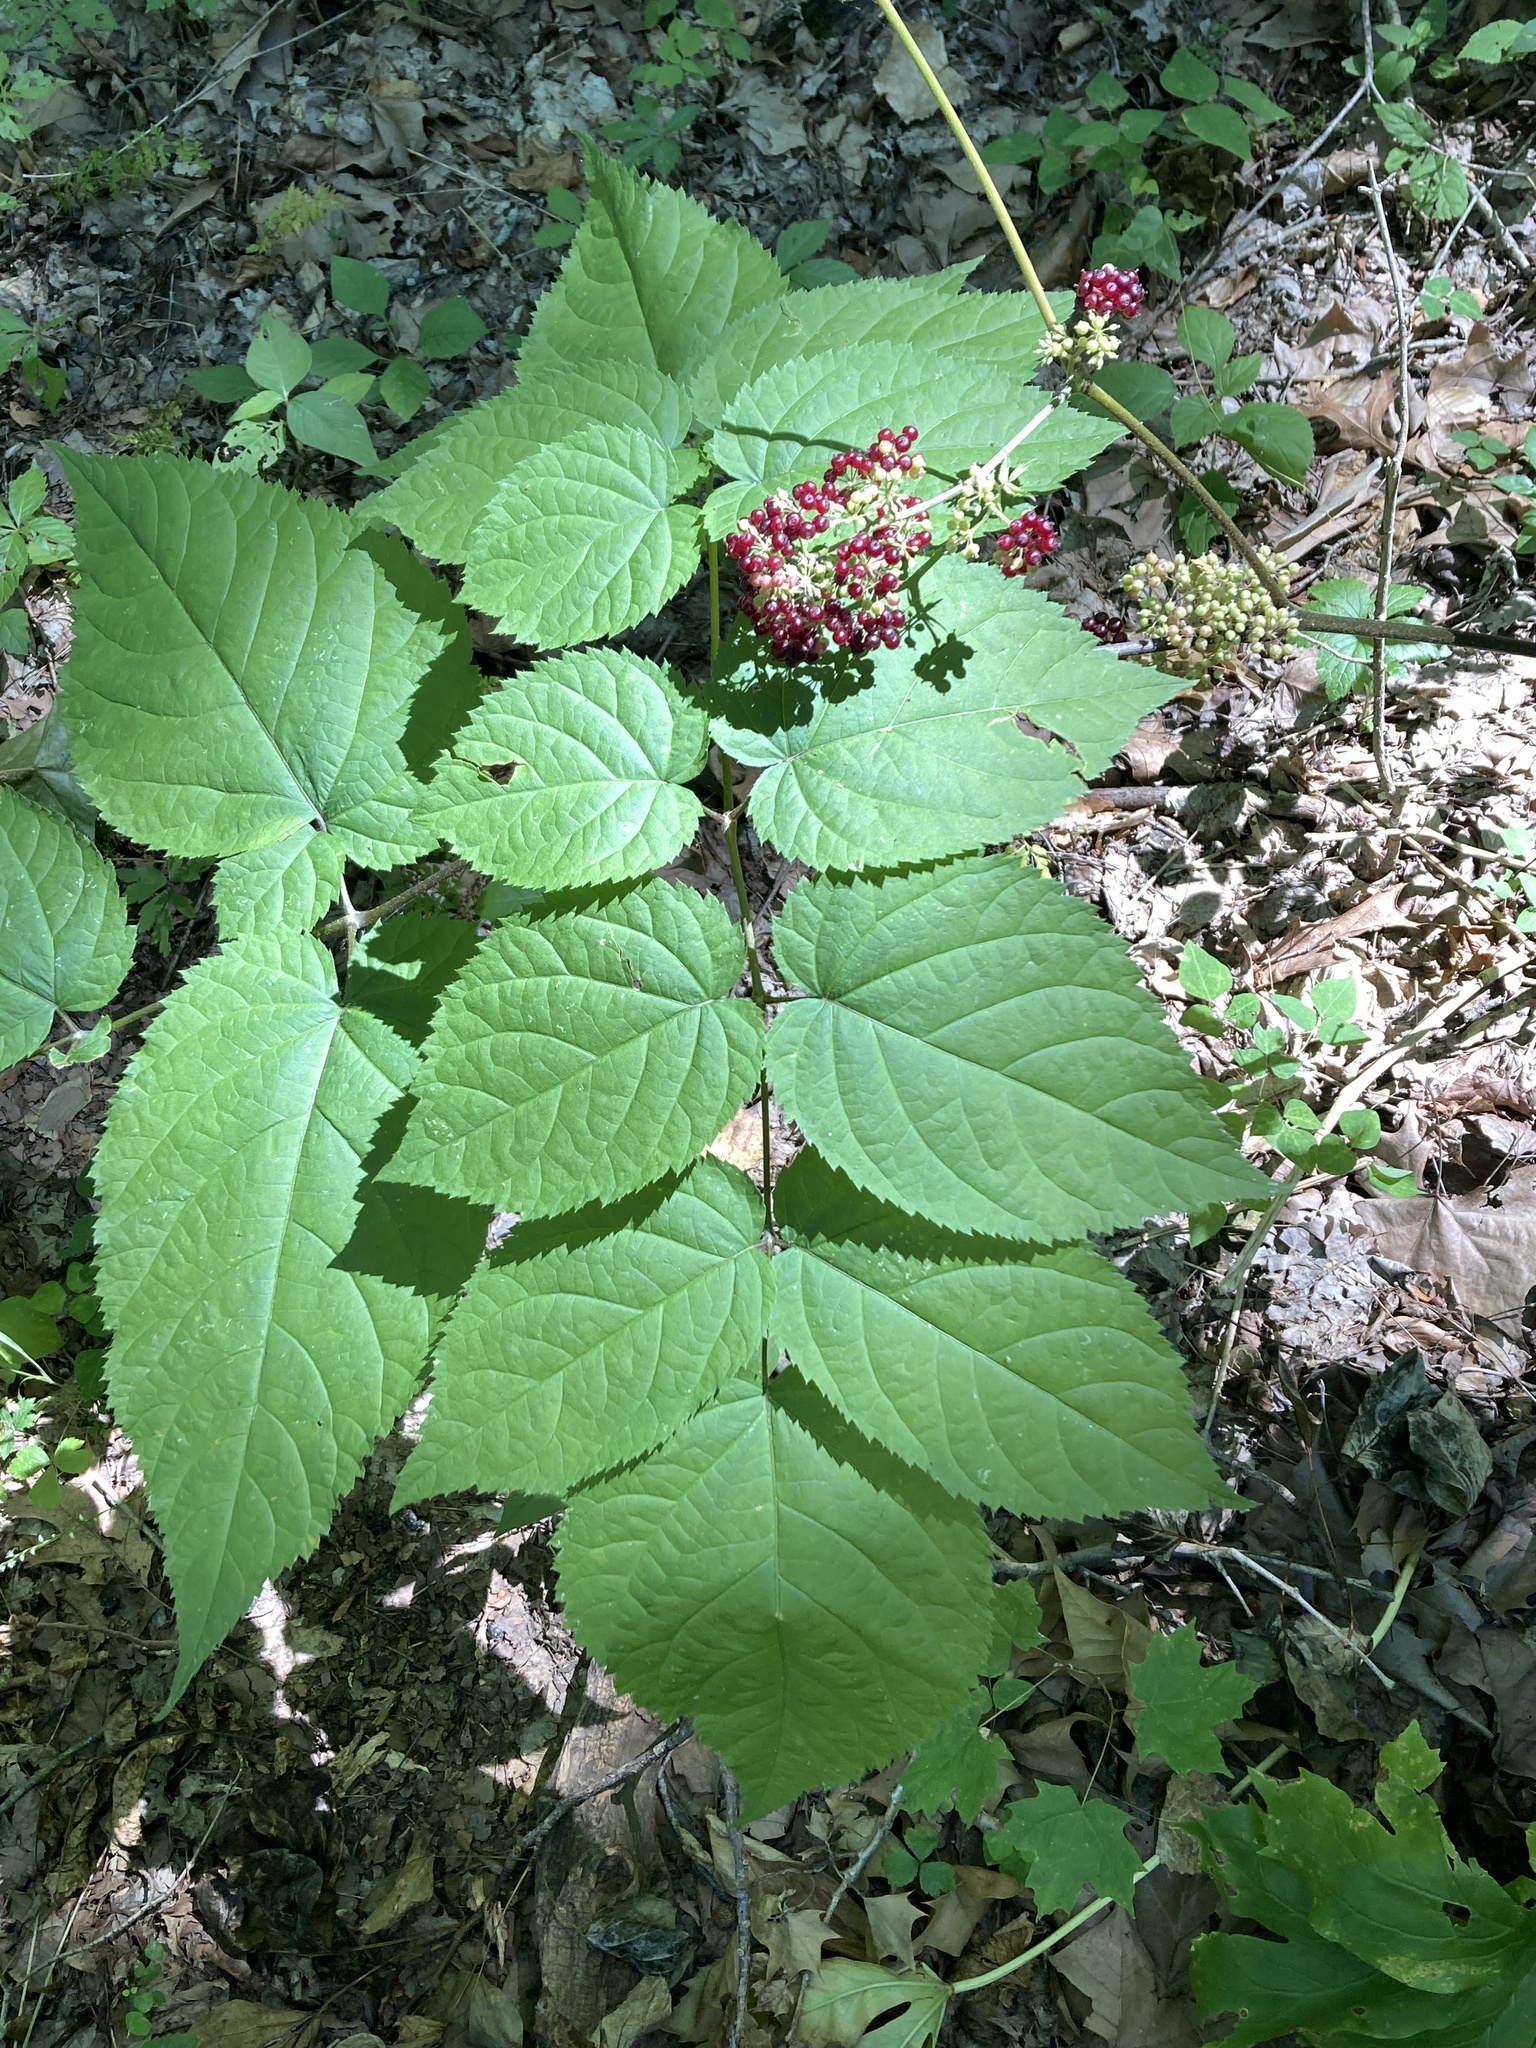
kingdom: Plantae
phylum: Tracheophyta
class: Magnoliopsida
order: Apiales
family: Araliaceae
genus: Aralia
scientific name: Aralia racemosa
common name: American-spikenard
